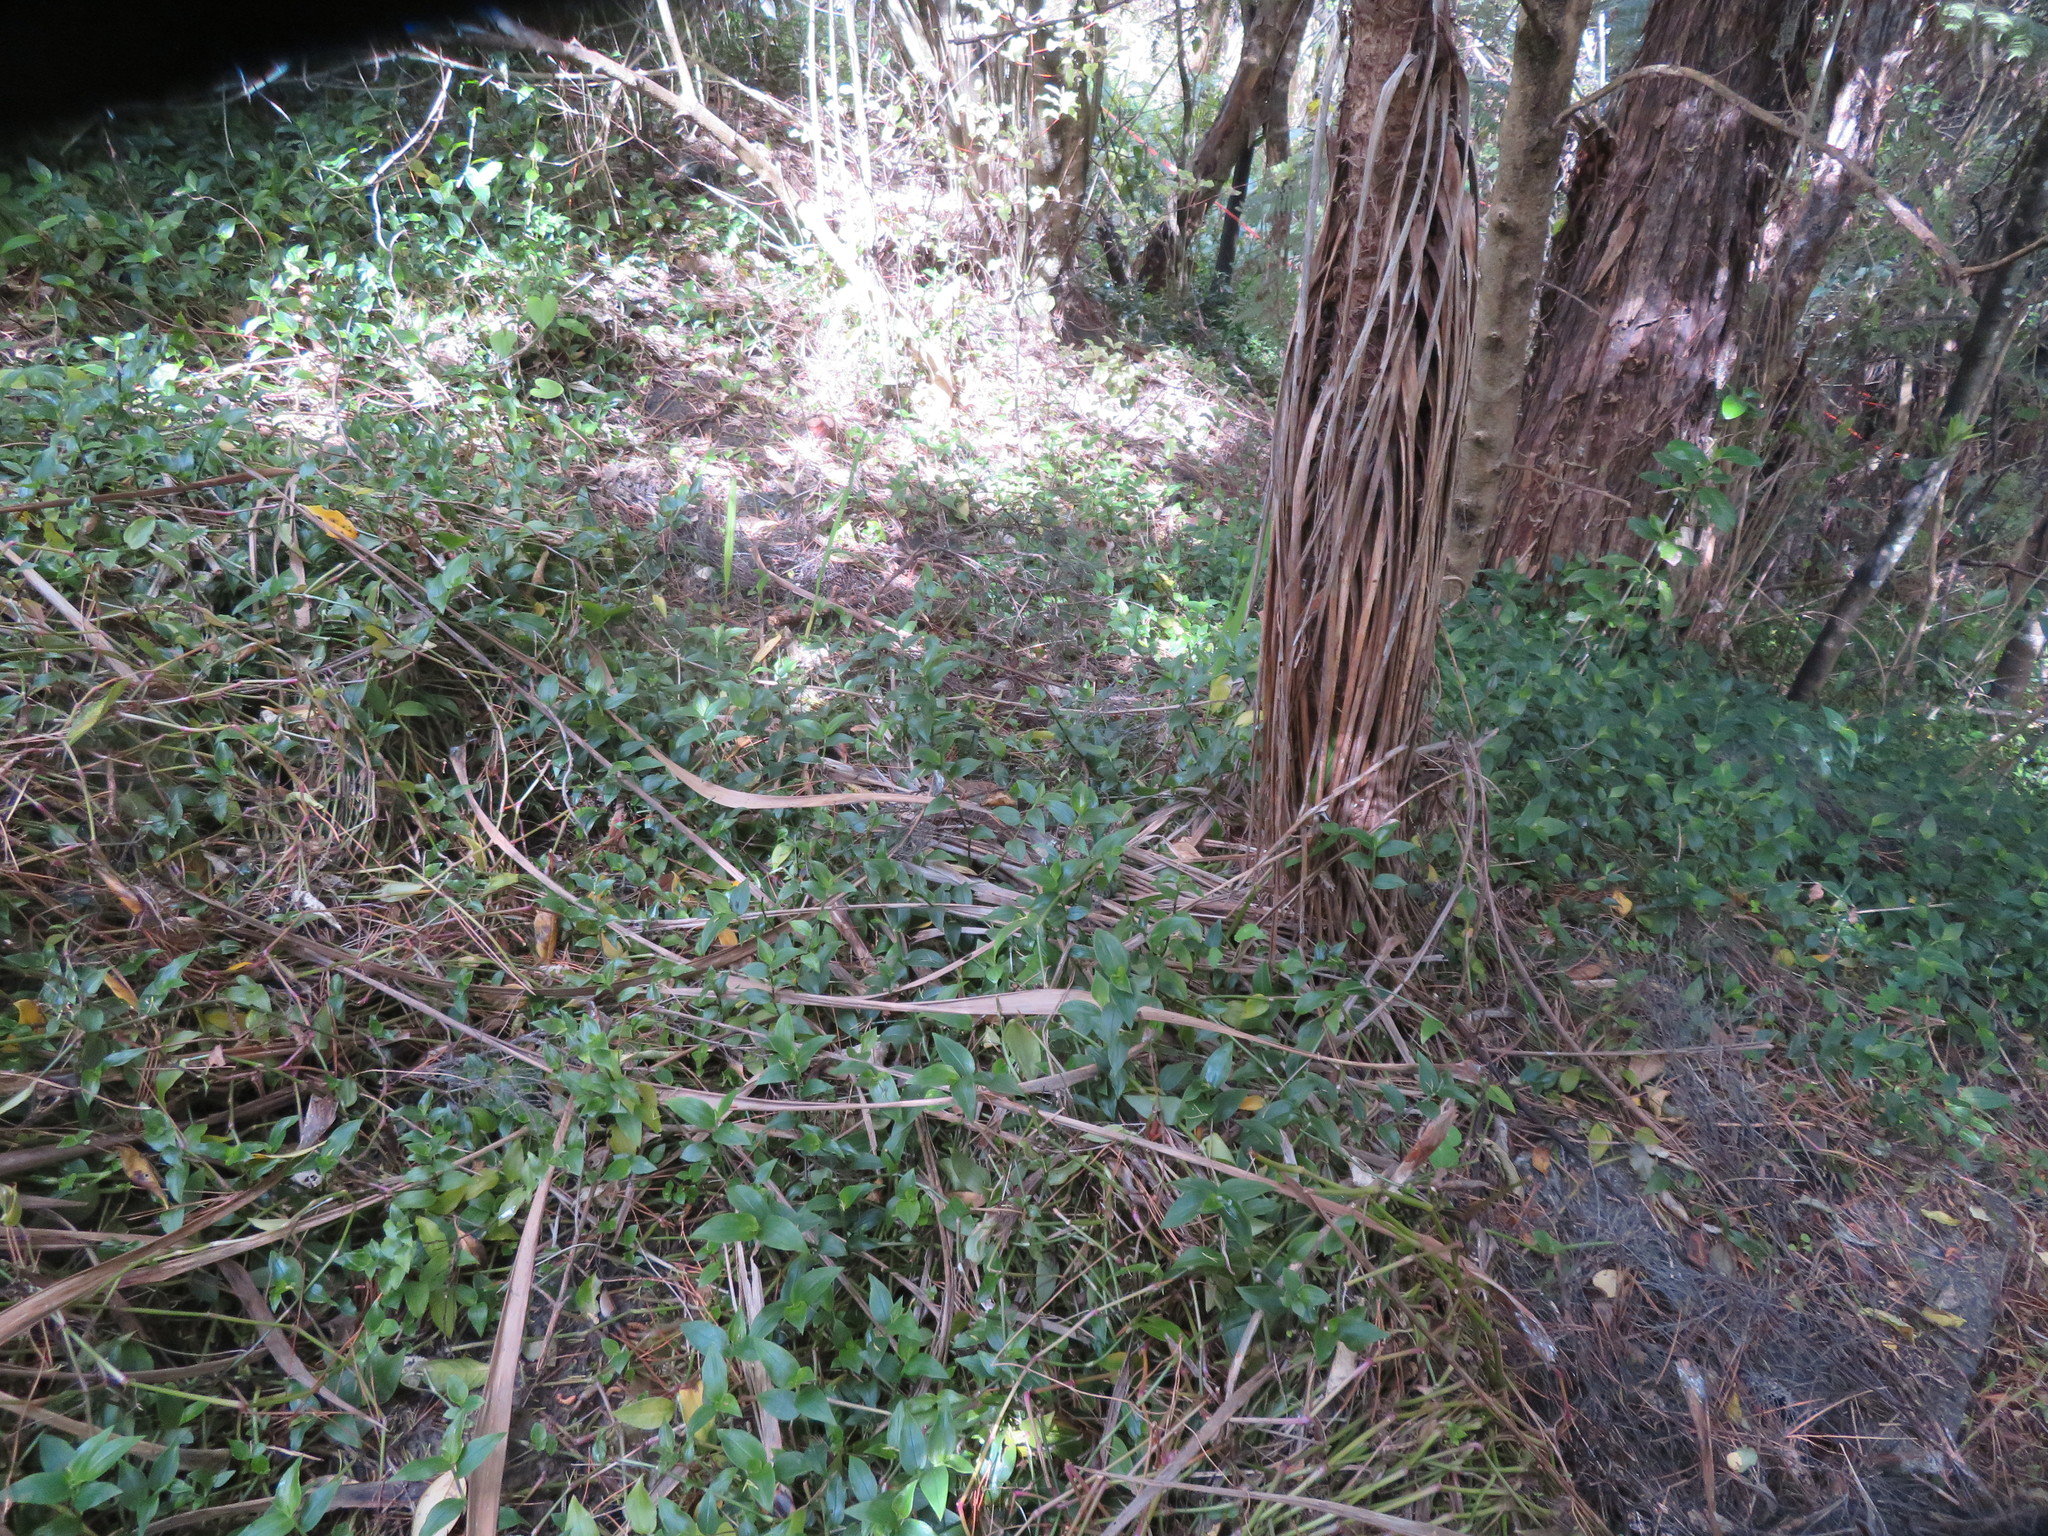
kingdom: Plantae
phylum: Tracheophyta
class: Liliopsida
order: Commelinales
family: Commelinaceae
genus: Tradescantia
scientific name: Tradescantia fluminensis
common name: Wandering-jew
